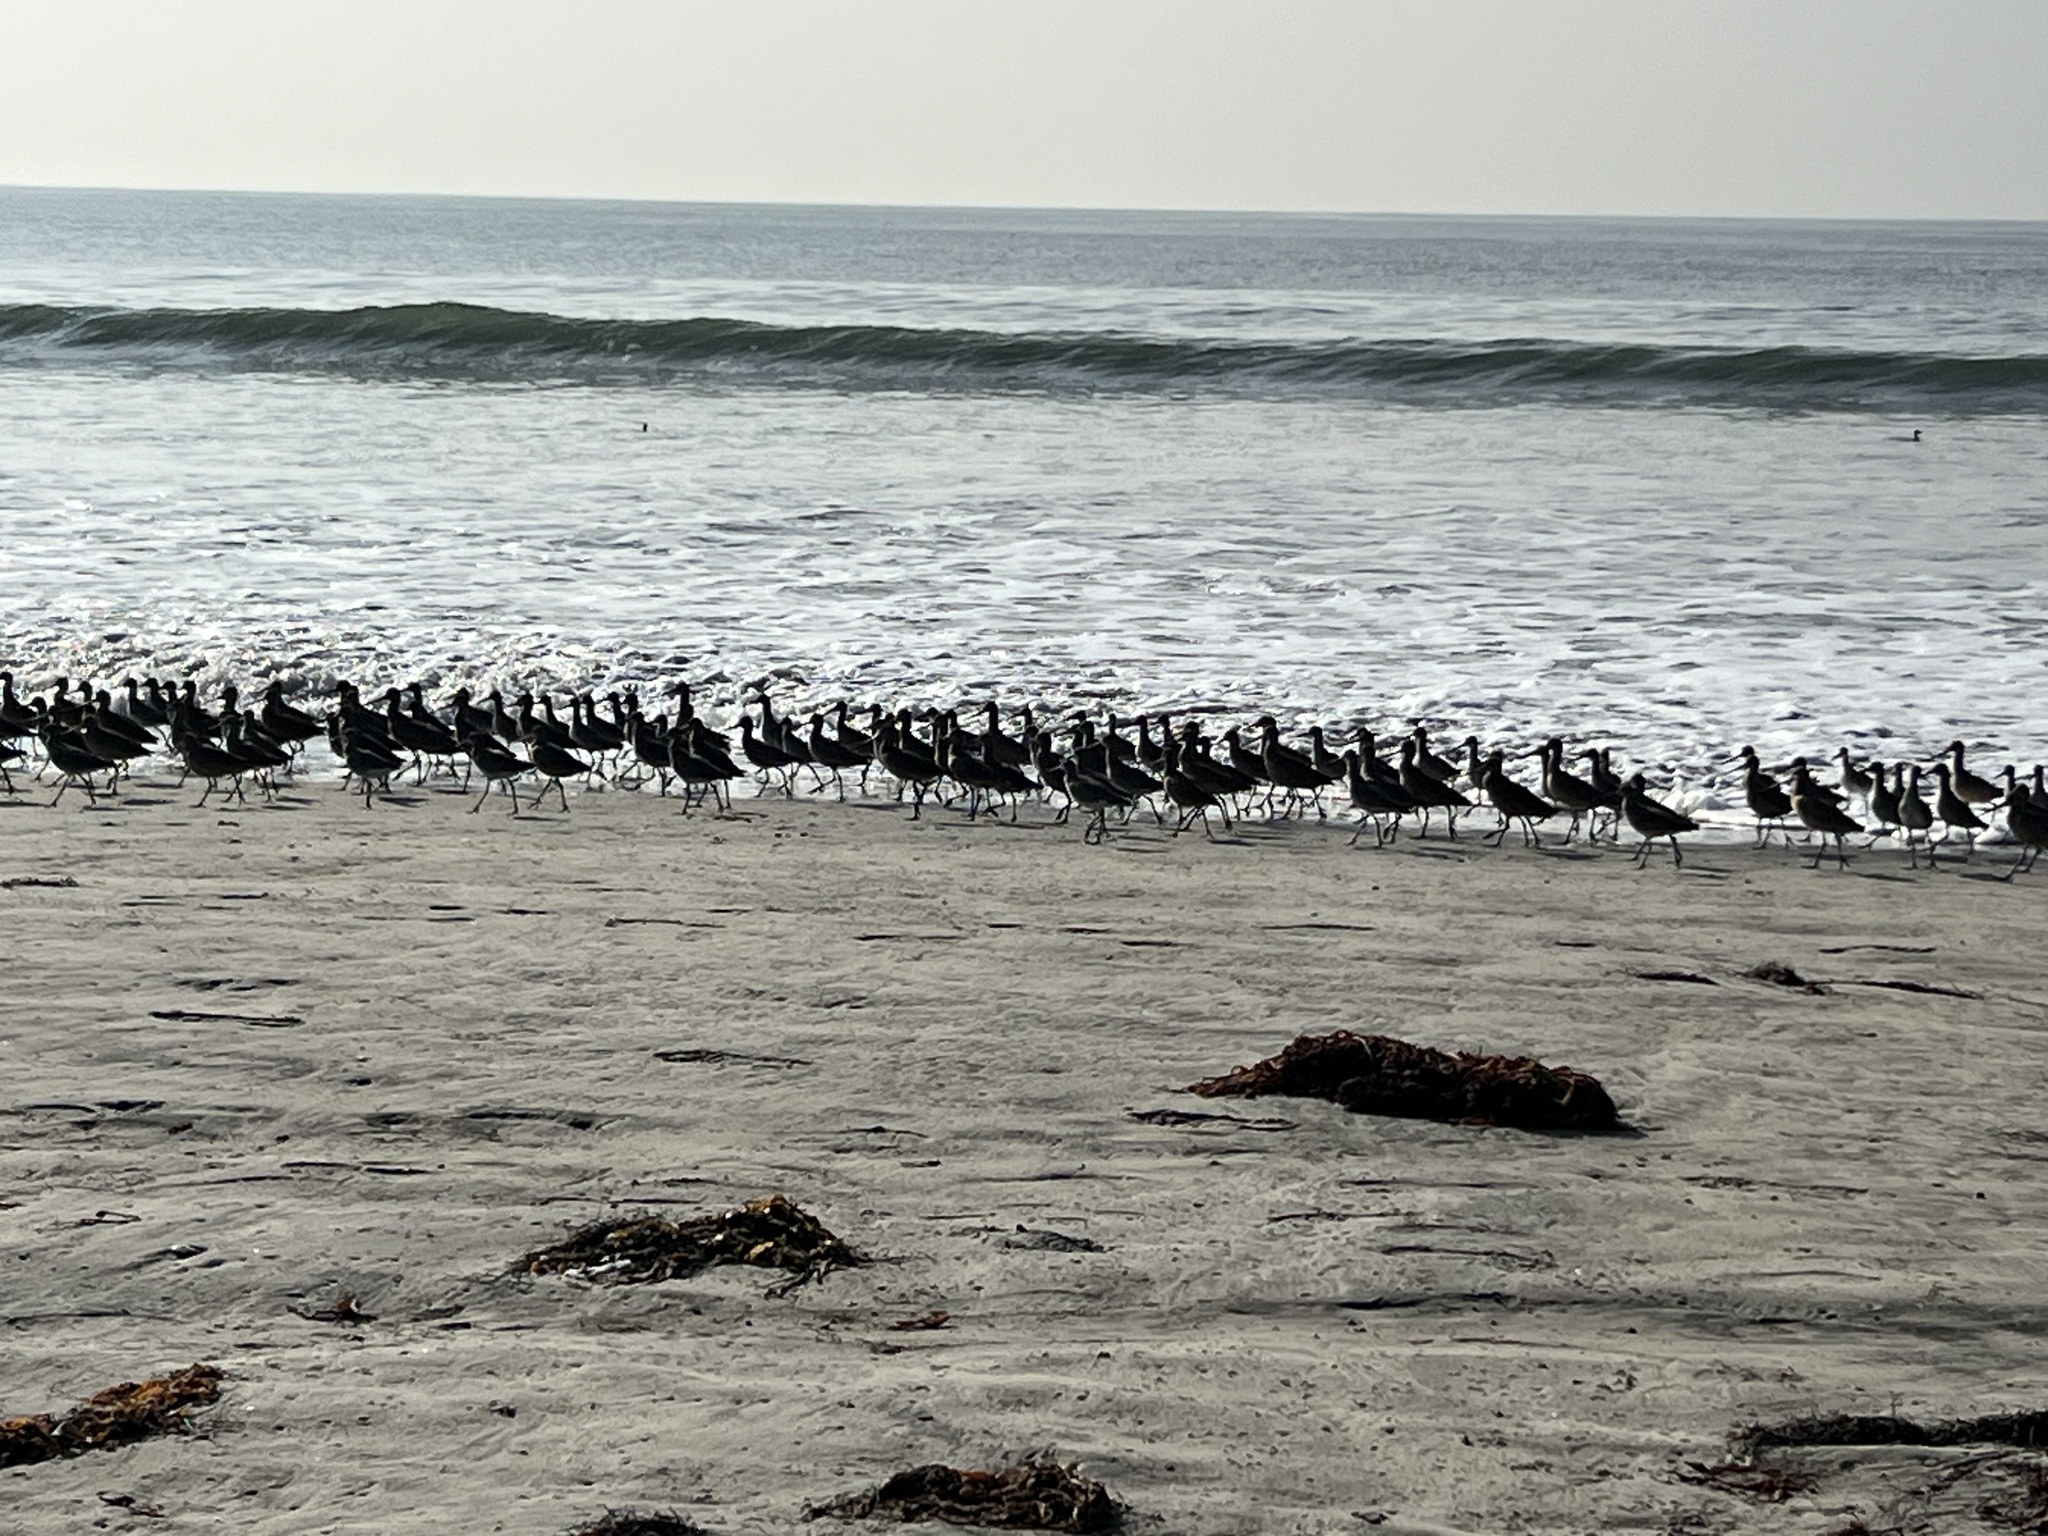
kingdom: Animalia
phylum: Chordata
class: Aves
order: Charadriiformes
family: Scolopacidae
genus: Tringa
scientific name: Tringa semipalmata
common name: Willet
